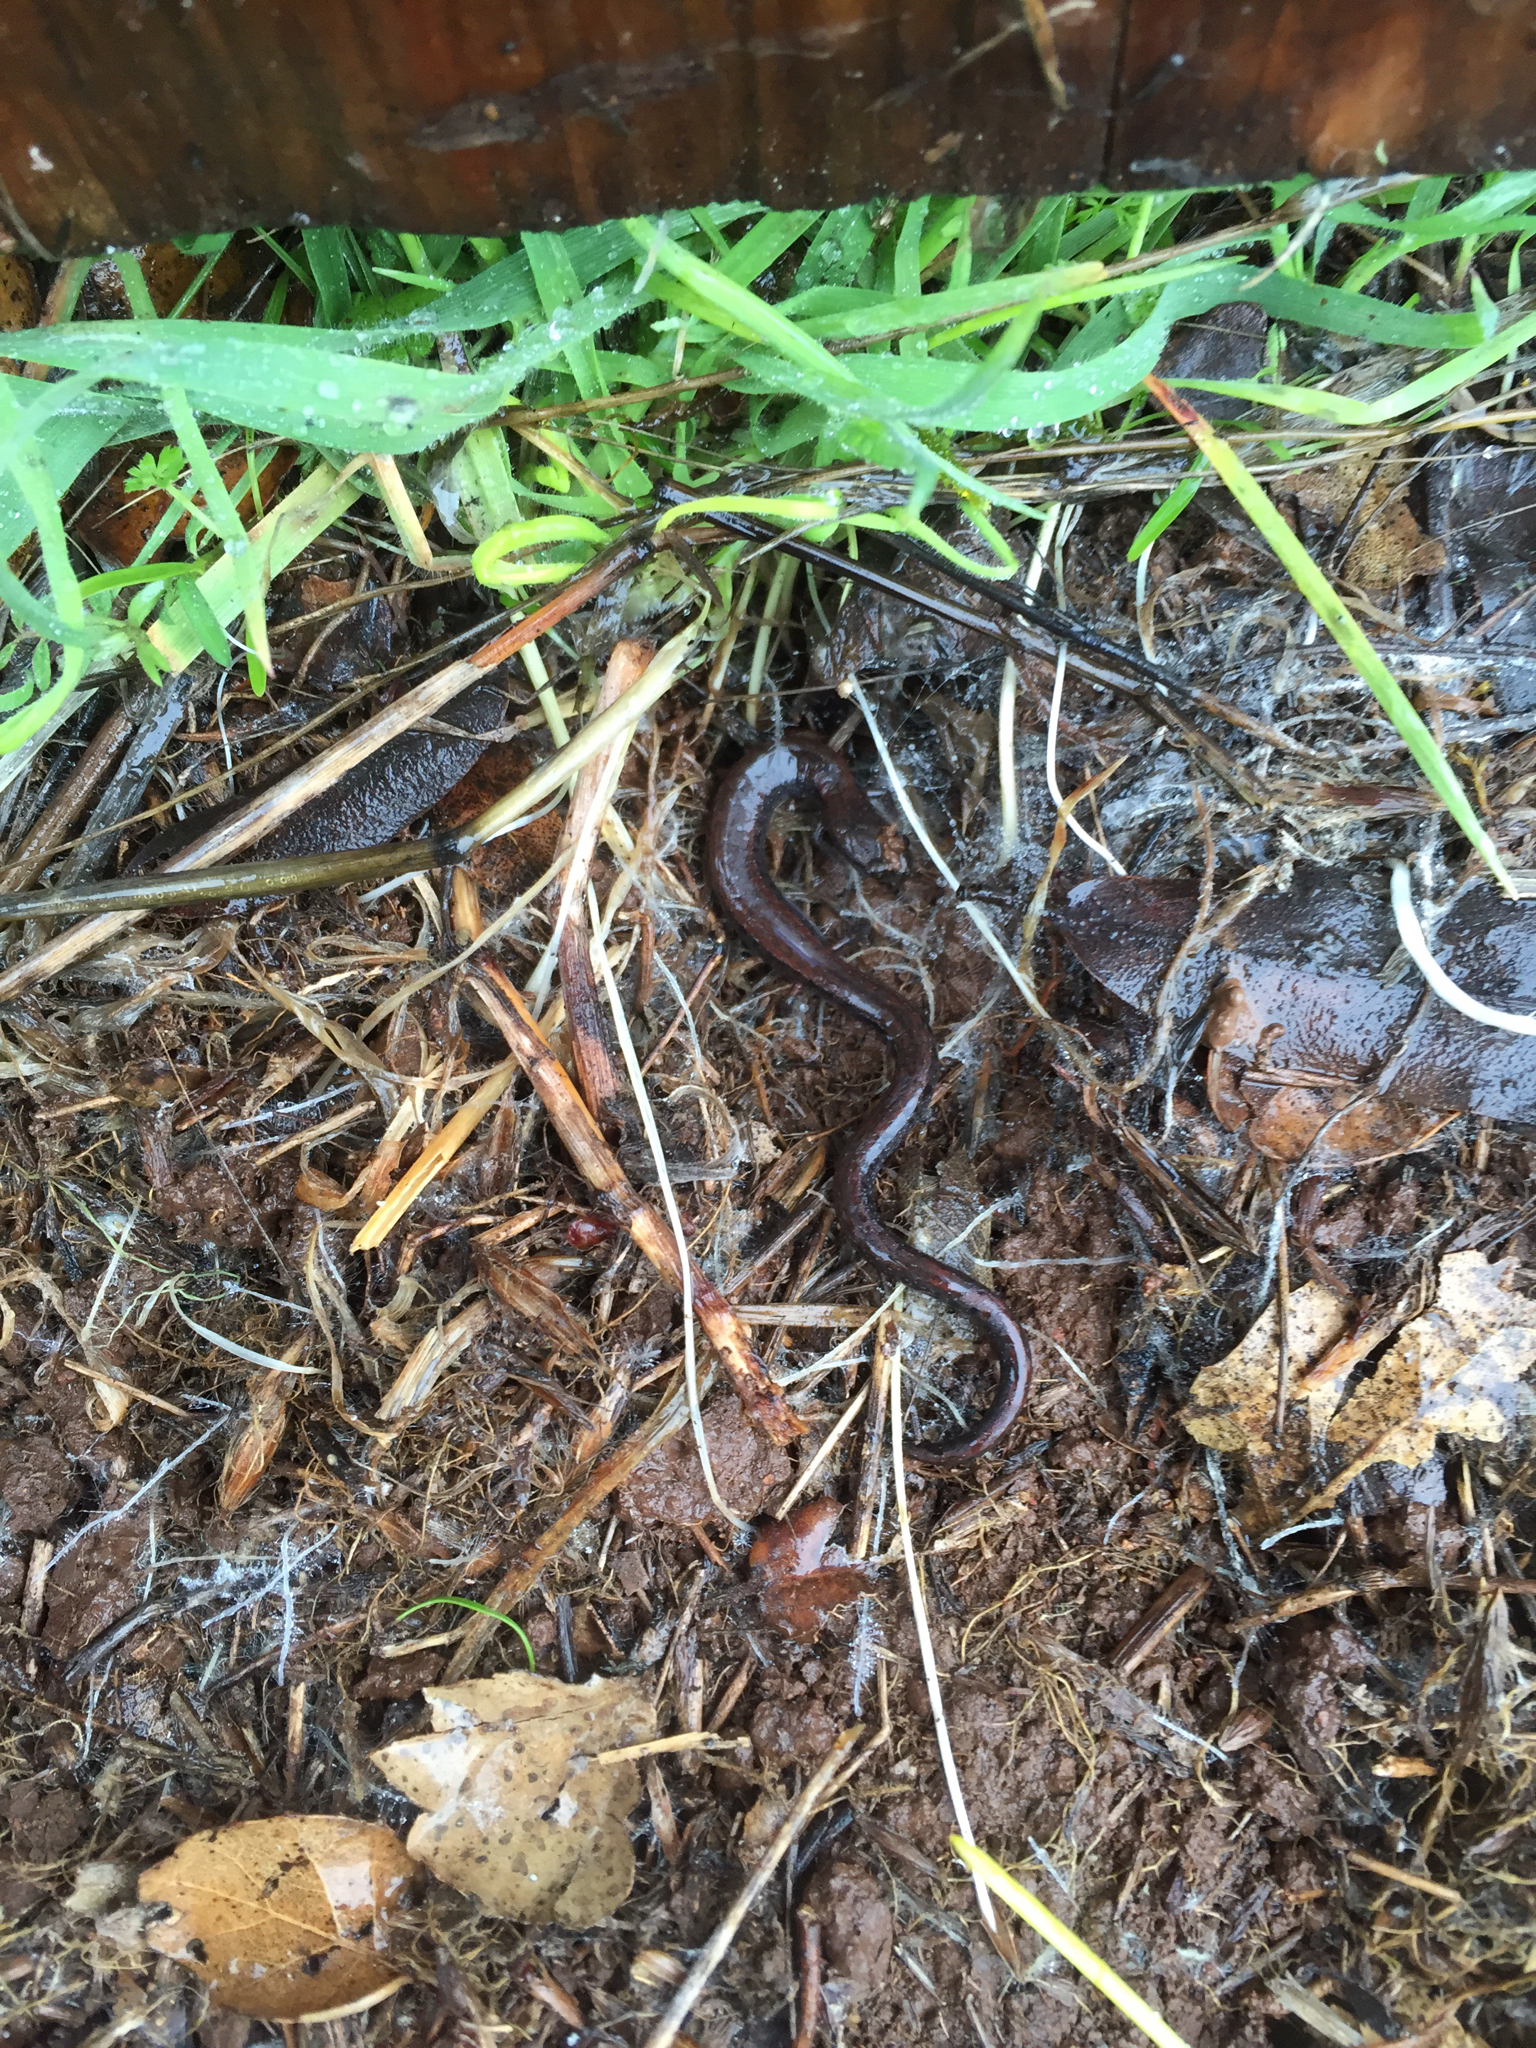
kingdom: Animalia
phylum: Chordata
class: Amphibia
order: Caudata
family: Plethodontidae
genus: Batrachoseps
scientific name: Batrachoseps attenuatus
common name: California slender salamander
